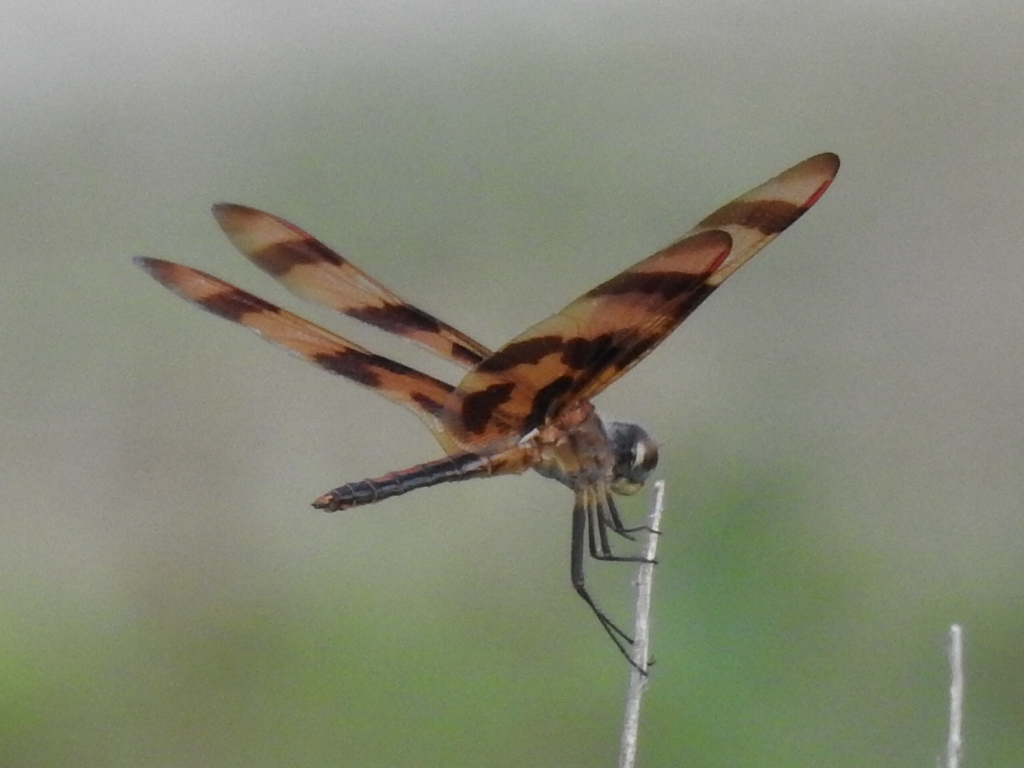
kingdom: Animalia
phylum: Arthropoda
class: Insecta
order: Odonata
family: Libellulidae
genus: Celithemis
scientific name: Celithemis eponina
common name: Halloween pennant
